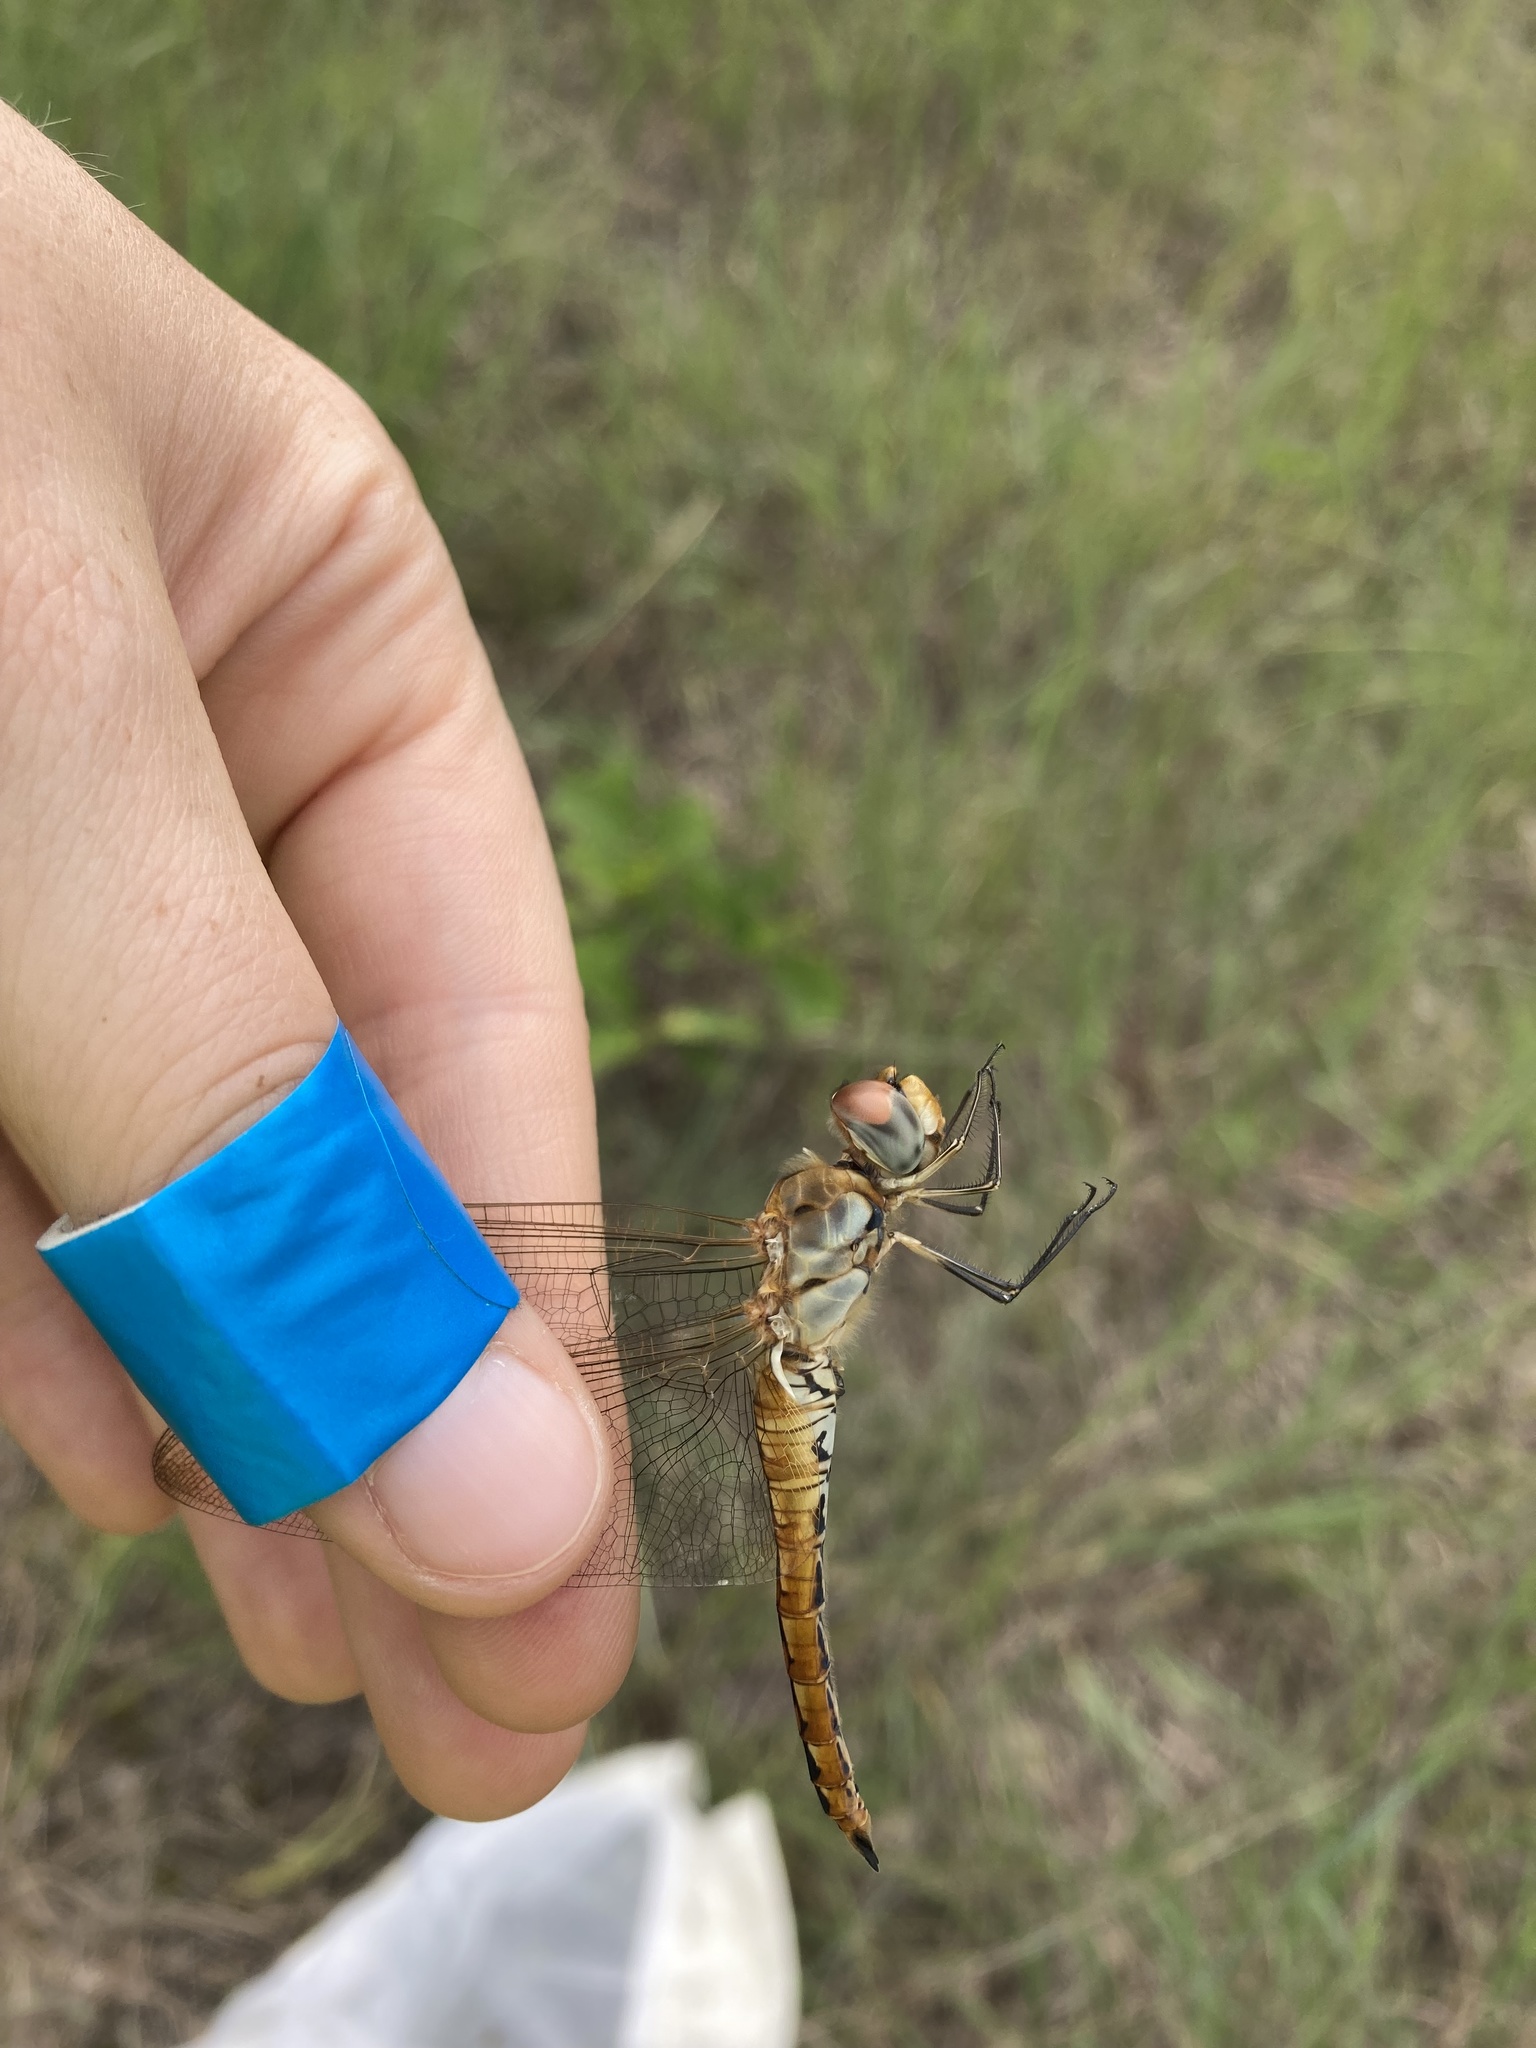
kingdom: Animalia
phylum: Arthropoda
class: Insecta
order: Odonata
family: Libellulidae
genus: Pantala
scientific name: Pantala flavescens
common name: Wandering glider
